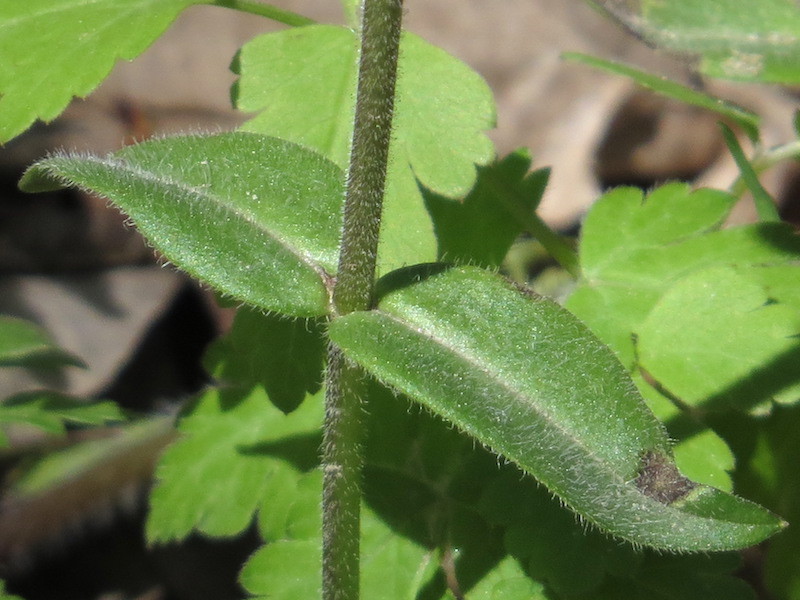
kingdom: Plantae
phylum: Tracheophyta
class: Magnoliopsida
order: Ericales
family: Polemoniaceae
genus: Phlox
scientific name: Phlox divaricata
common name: Blue phlox
